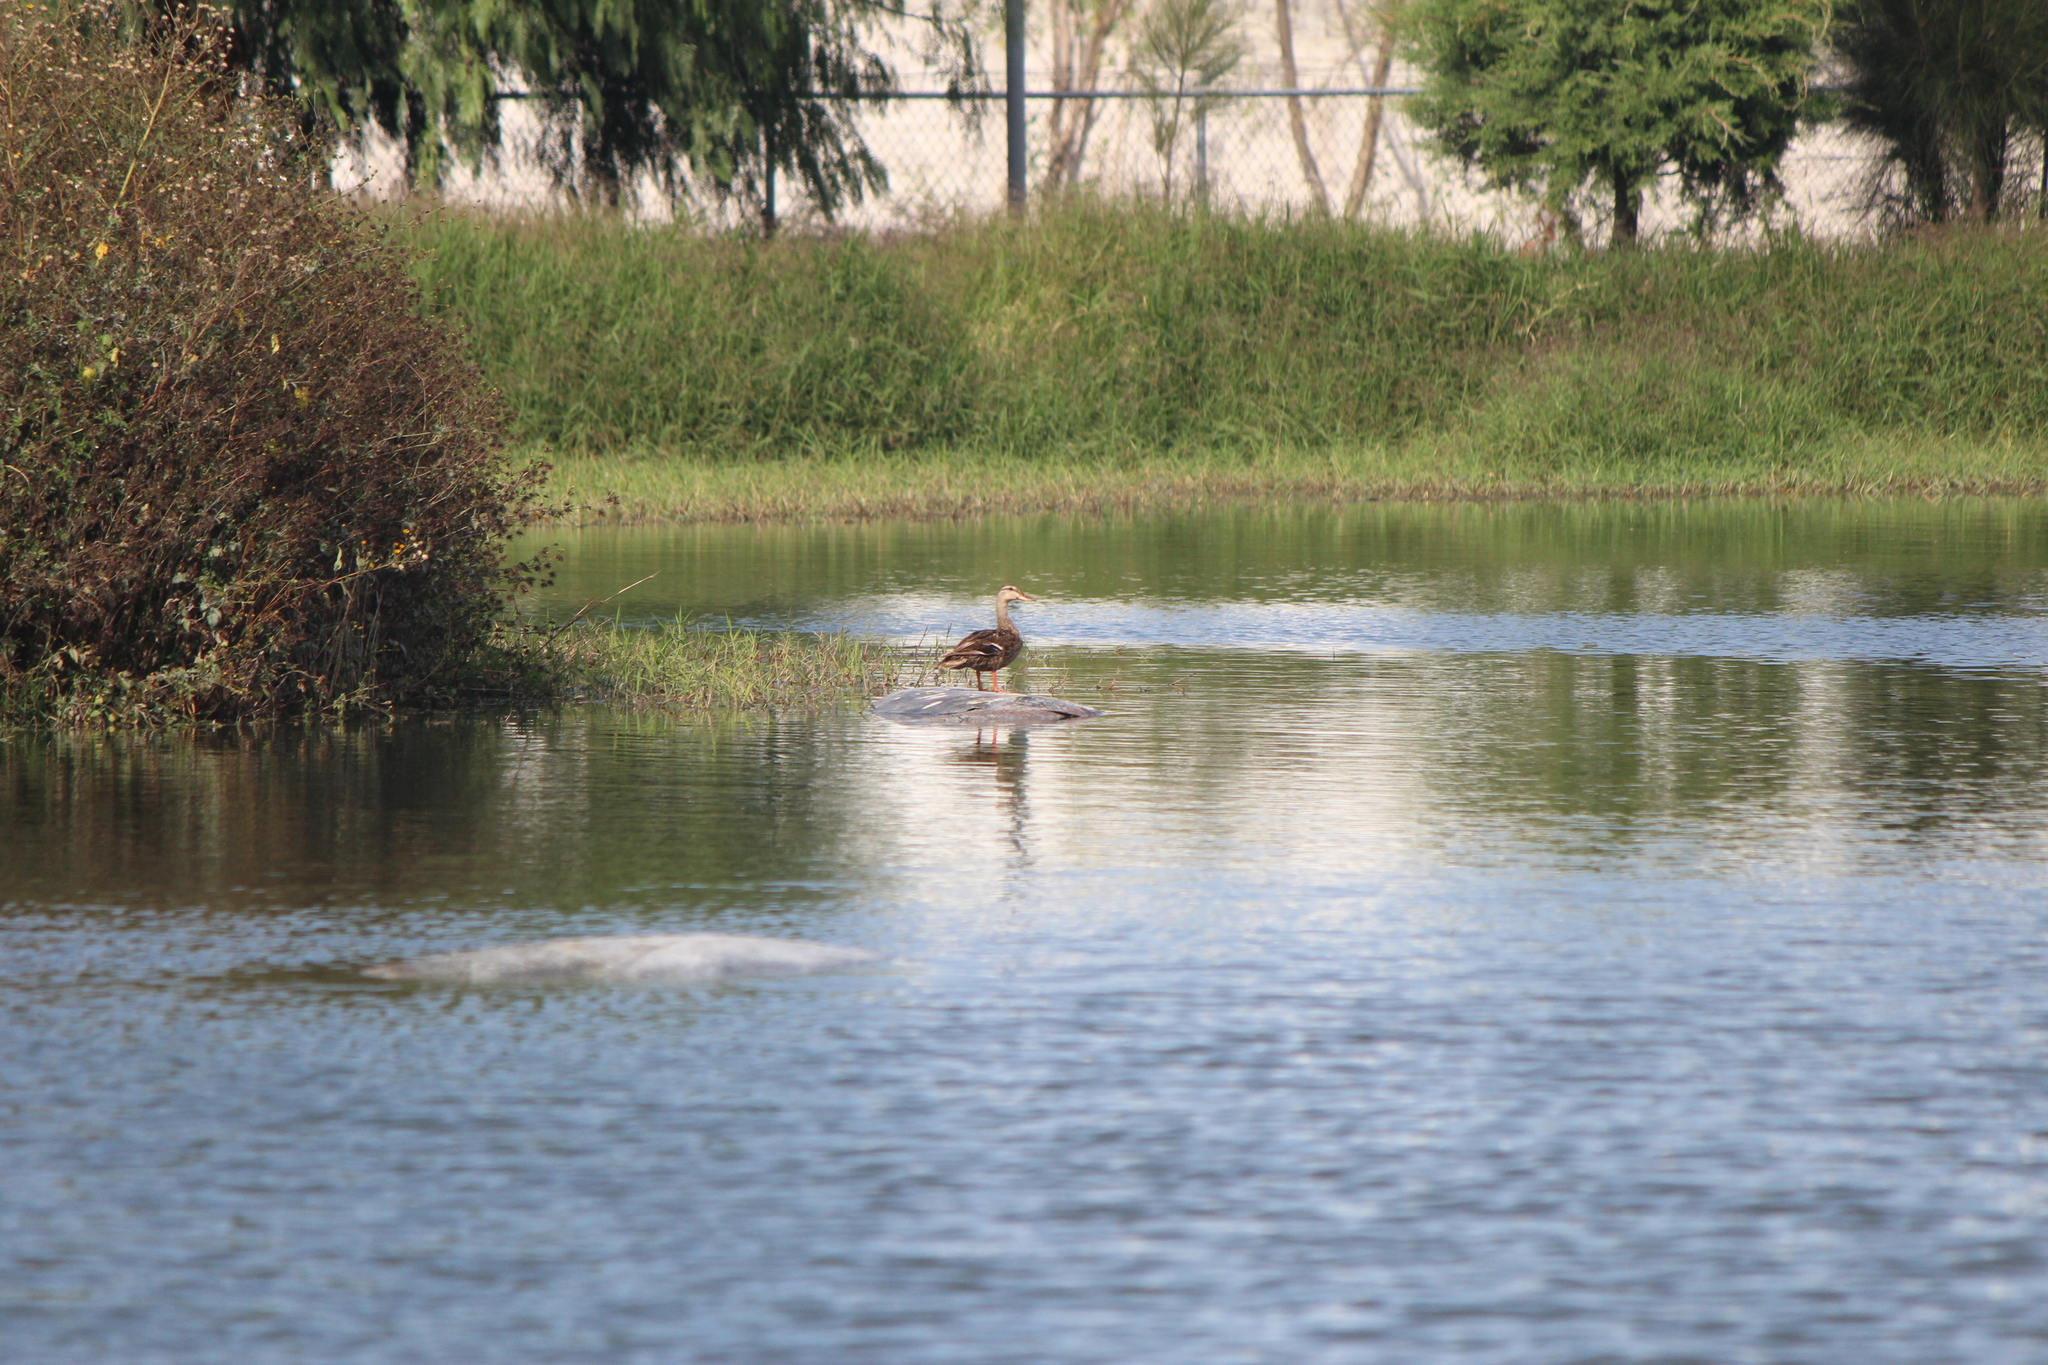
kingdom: Animalia
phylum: Chordata
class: Aves
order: Anseriformes
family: Anatidae
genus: Anas
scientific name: Anas diazi
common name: Mexican duck
